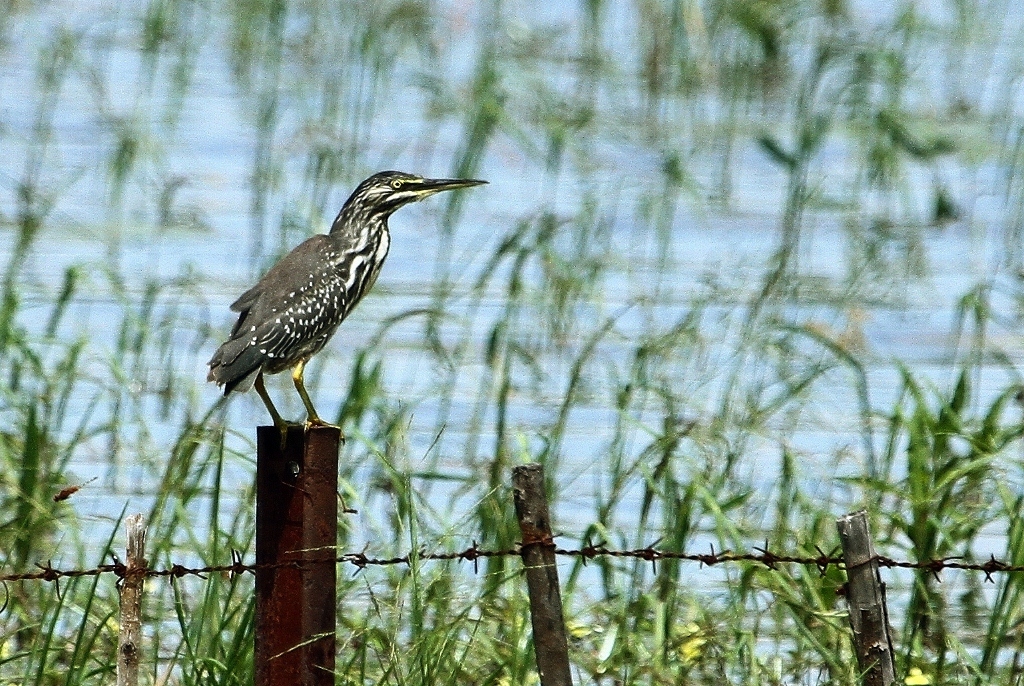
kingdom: Animalia
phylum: Chordata
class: Aves
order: Pelecaniformes
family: Ardeidae
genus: Butorides
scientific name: Butorides striata
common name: Striated heron
